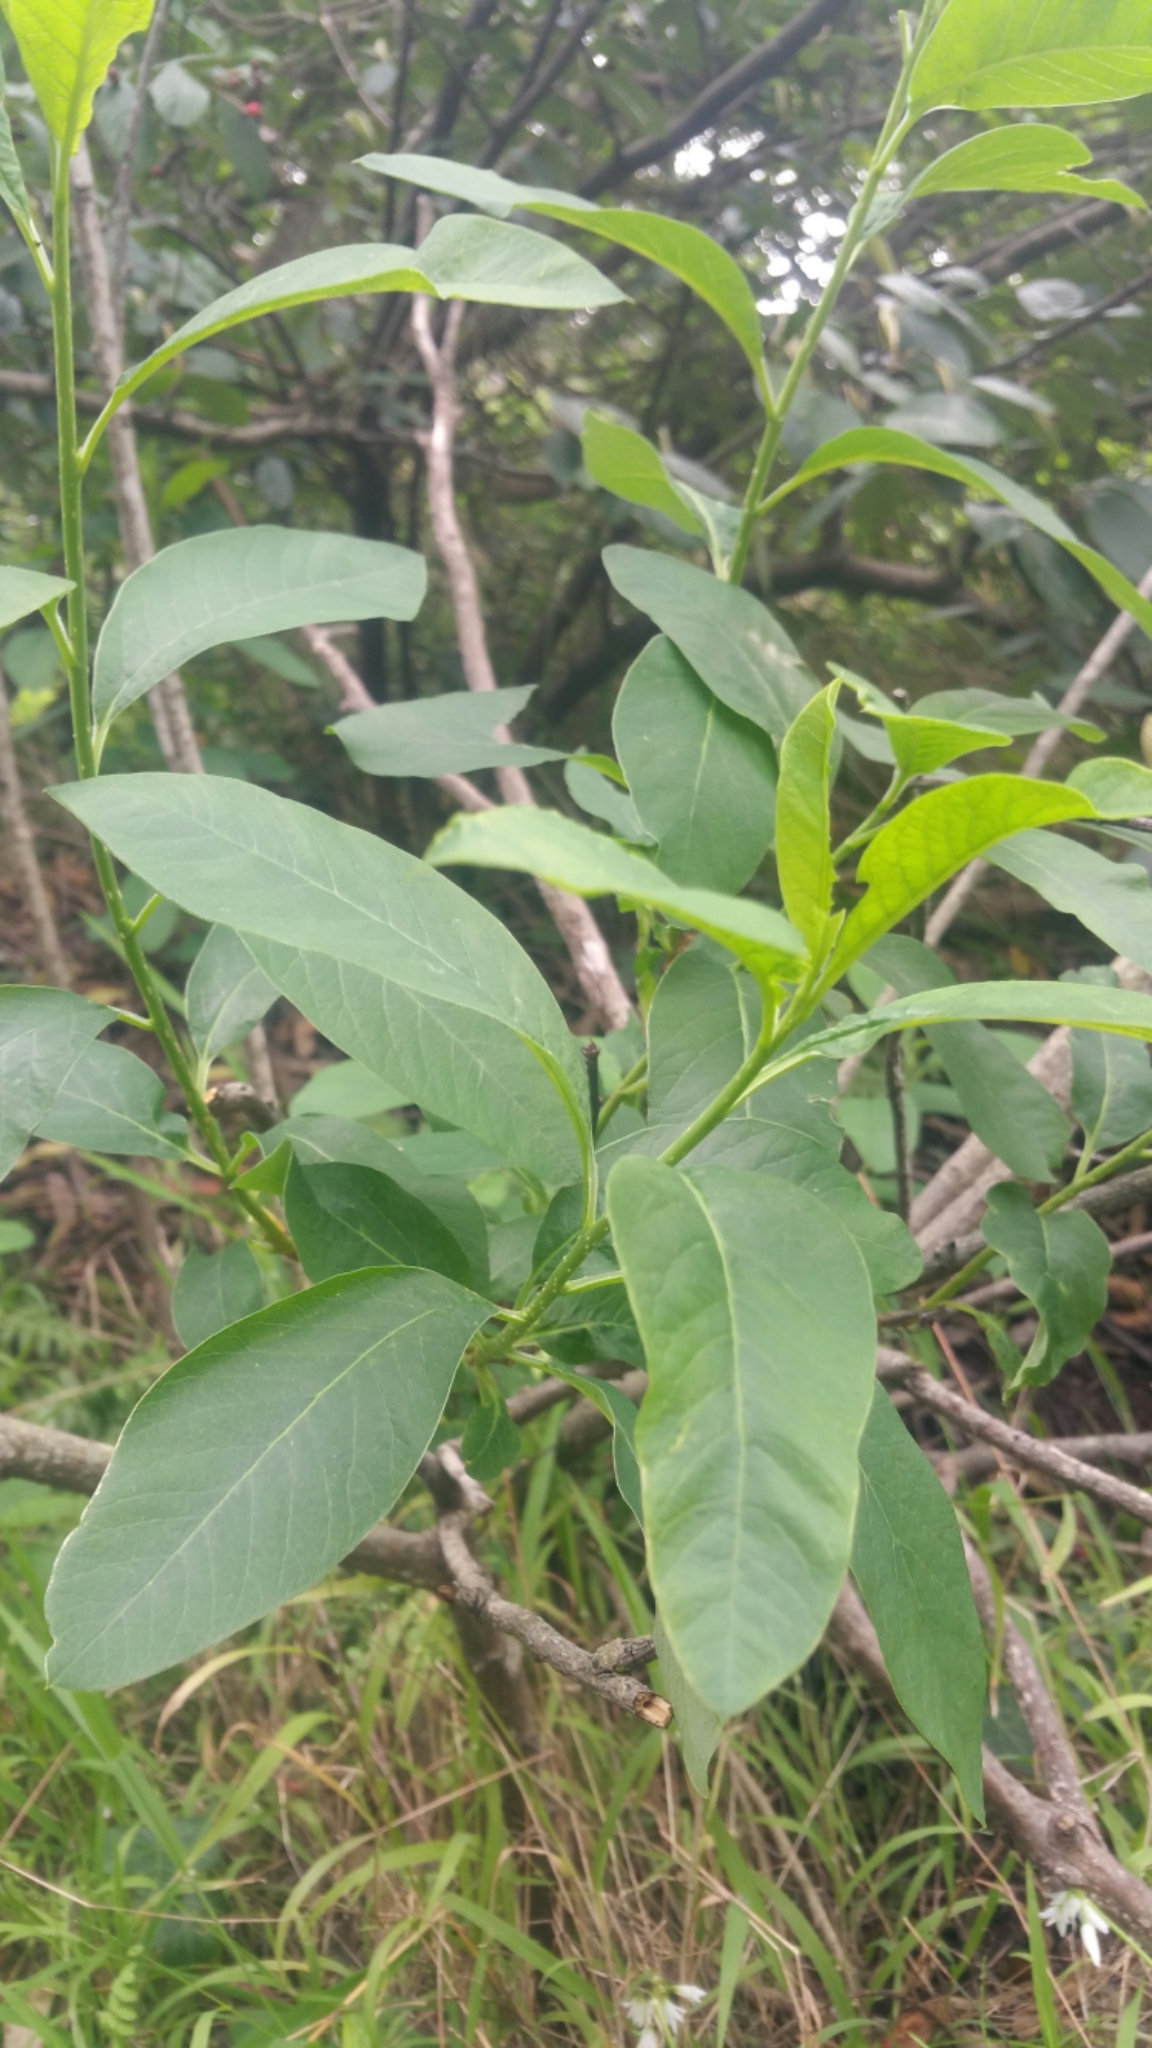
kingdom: Plantae
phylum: Tracheophyta
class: Magnoliopsida
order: Rosales
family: Rosaceae
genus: Oemleria
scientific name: Oemleria cerasiformis
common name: Osoberry
